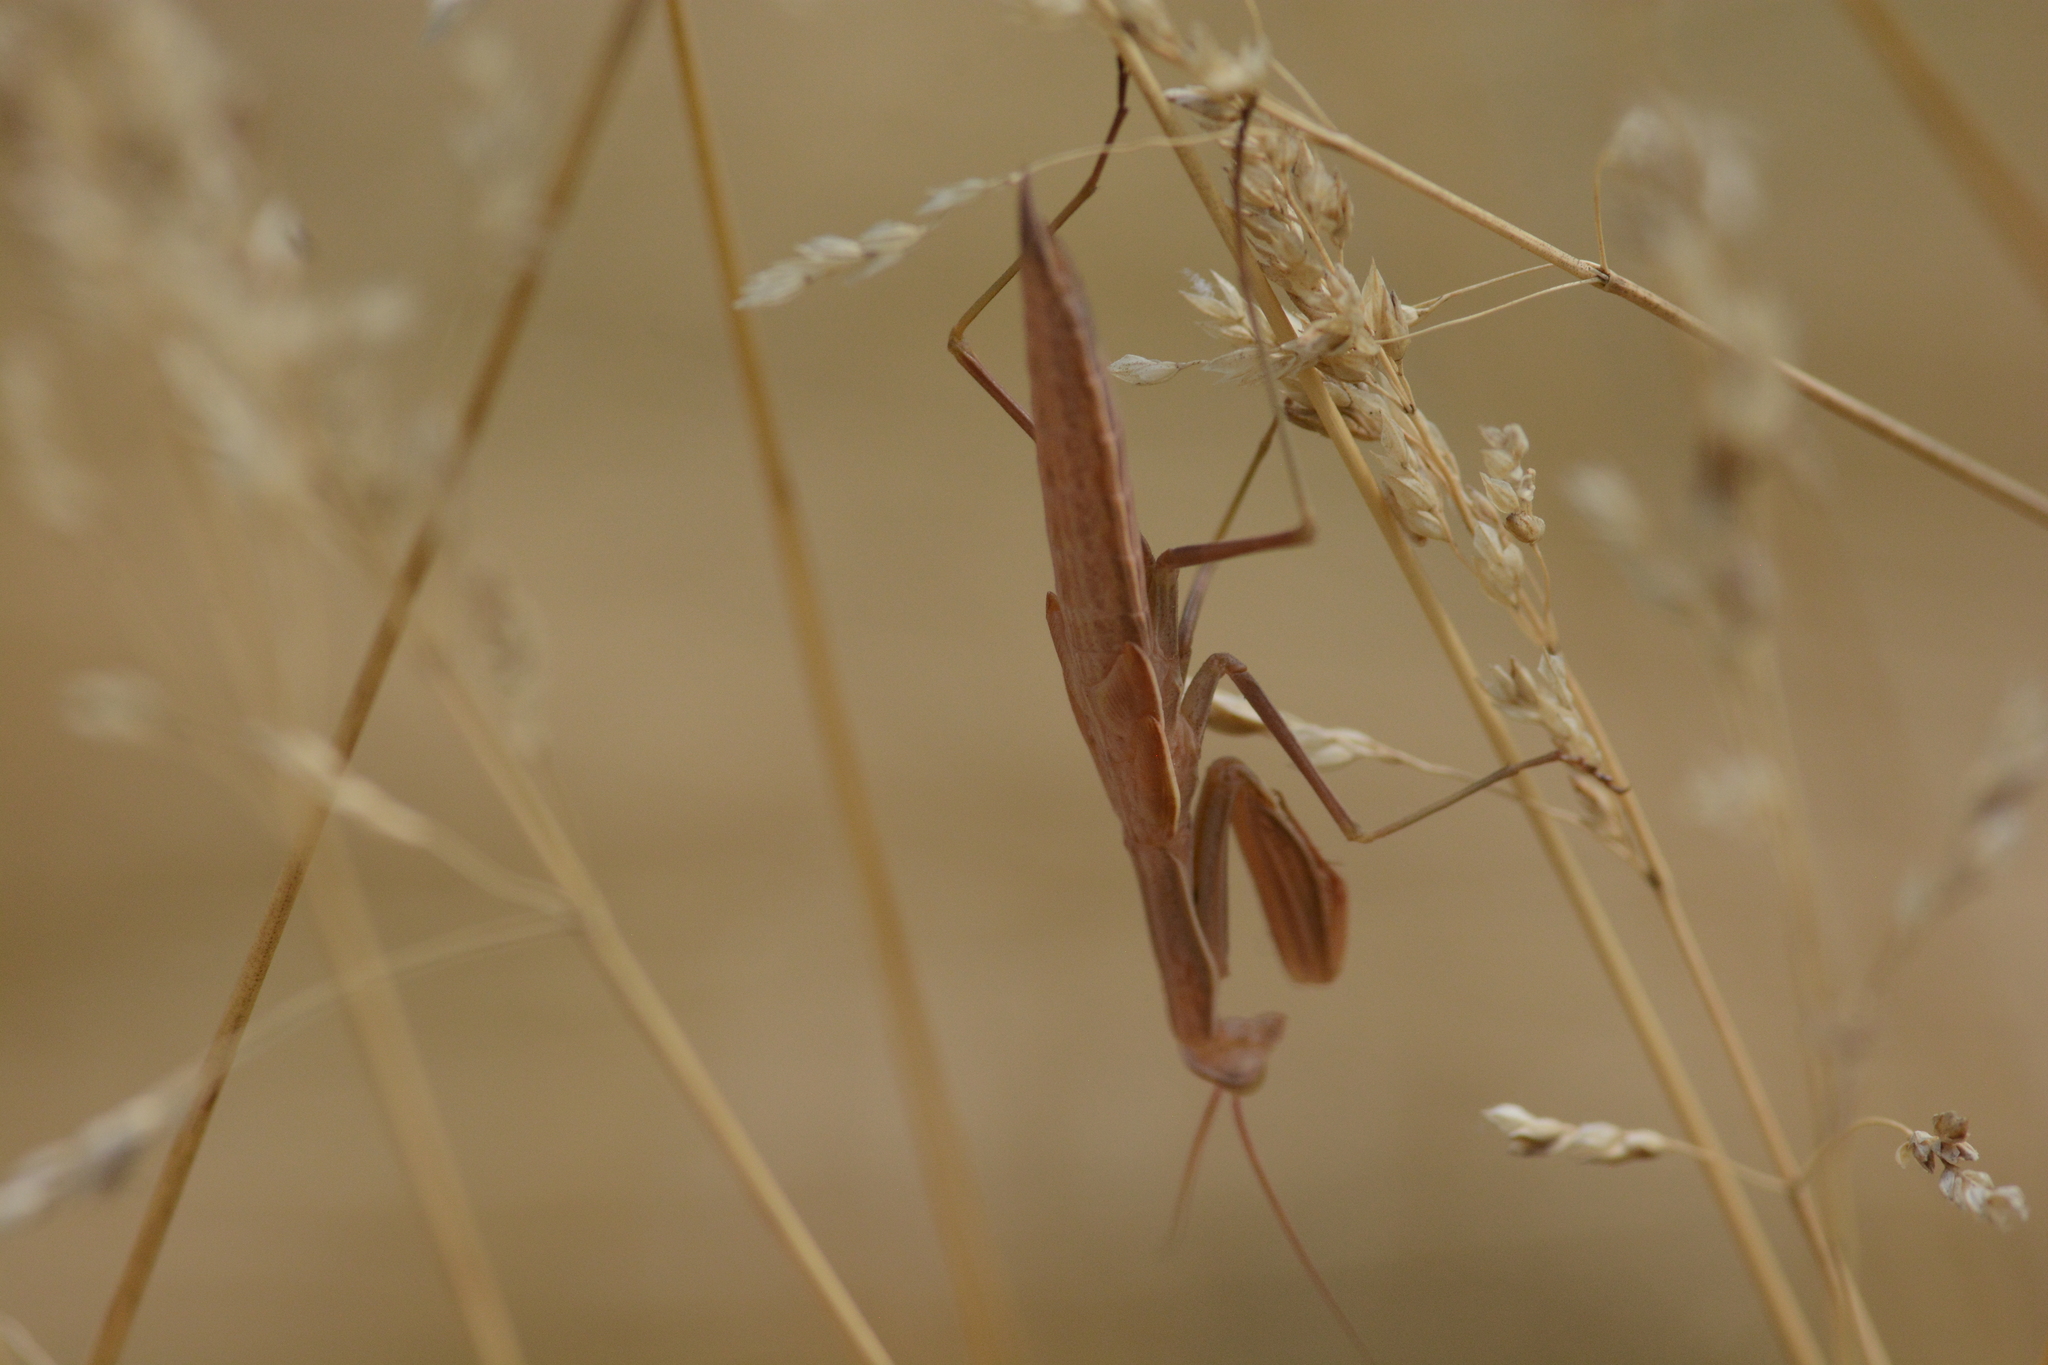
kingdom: Animalia
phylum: Arthropoda
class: Insecta
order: Mantodea
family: Mantidae
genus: Mantis
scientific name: Mantis religiosa
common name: Praying mantis
